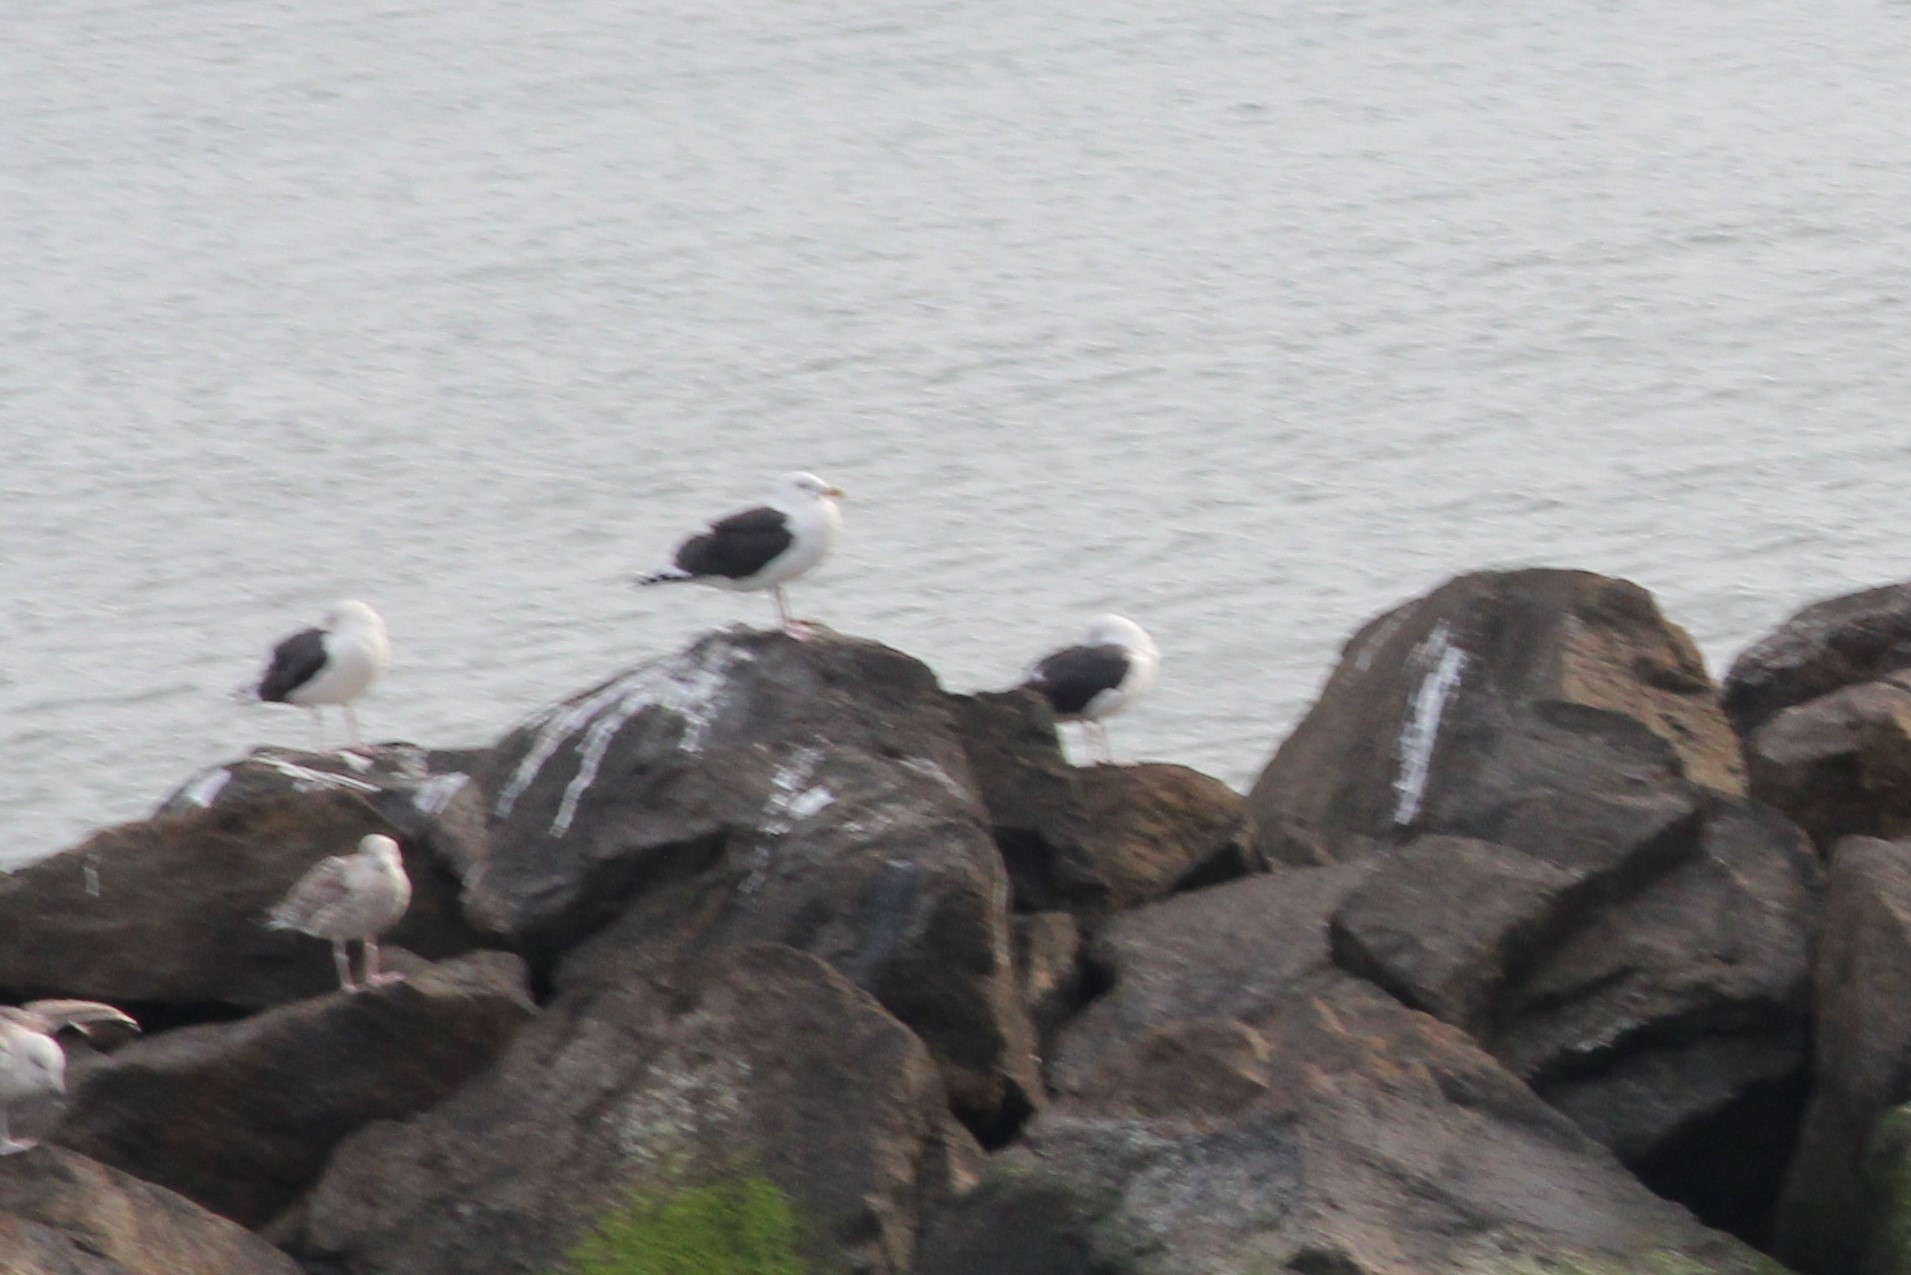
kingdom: Animalia
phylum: Chordata
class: Aves
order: Charadriiformes
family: Laridae
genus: Larus
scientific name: Larus marinus
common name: Great black-backed gull
